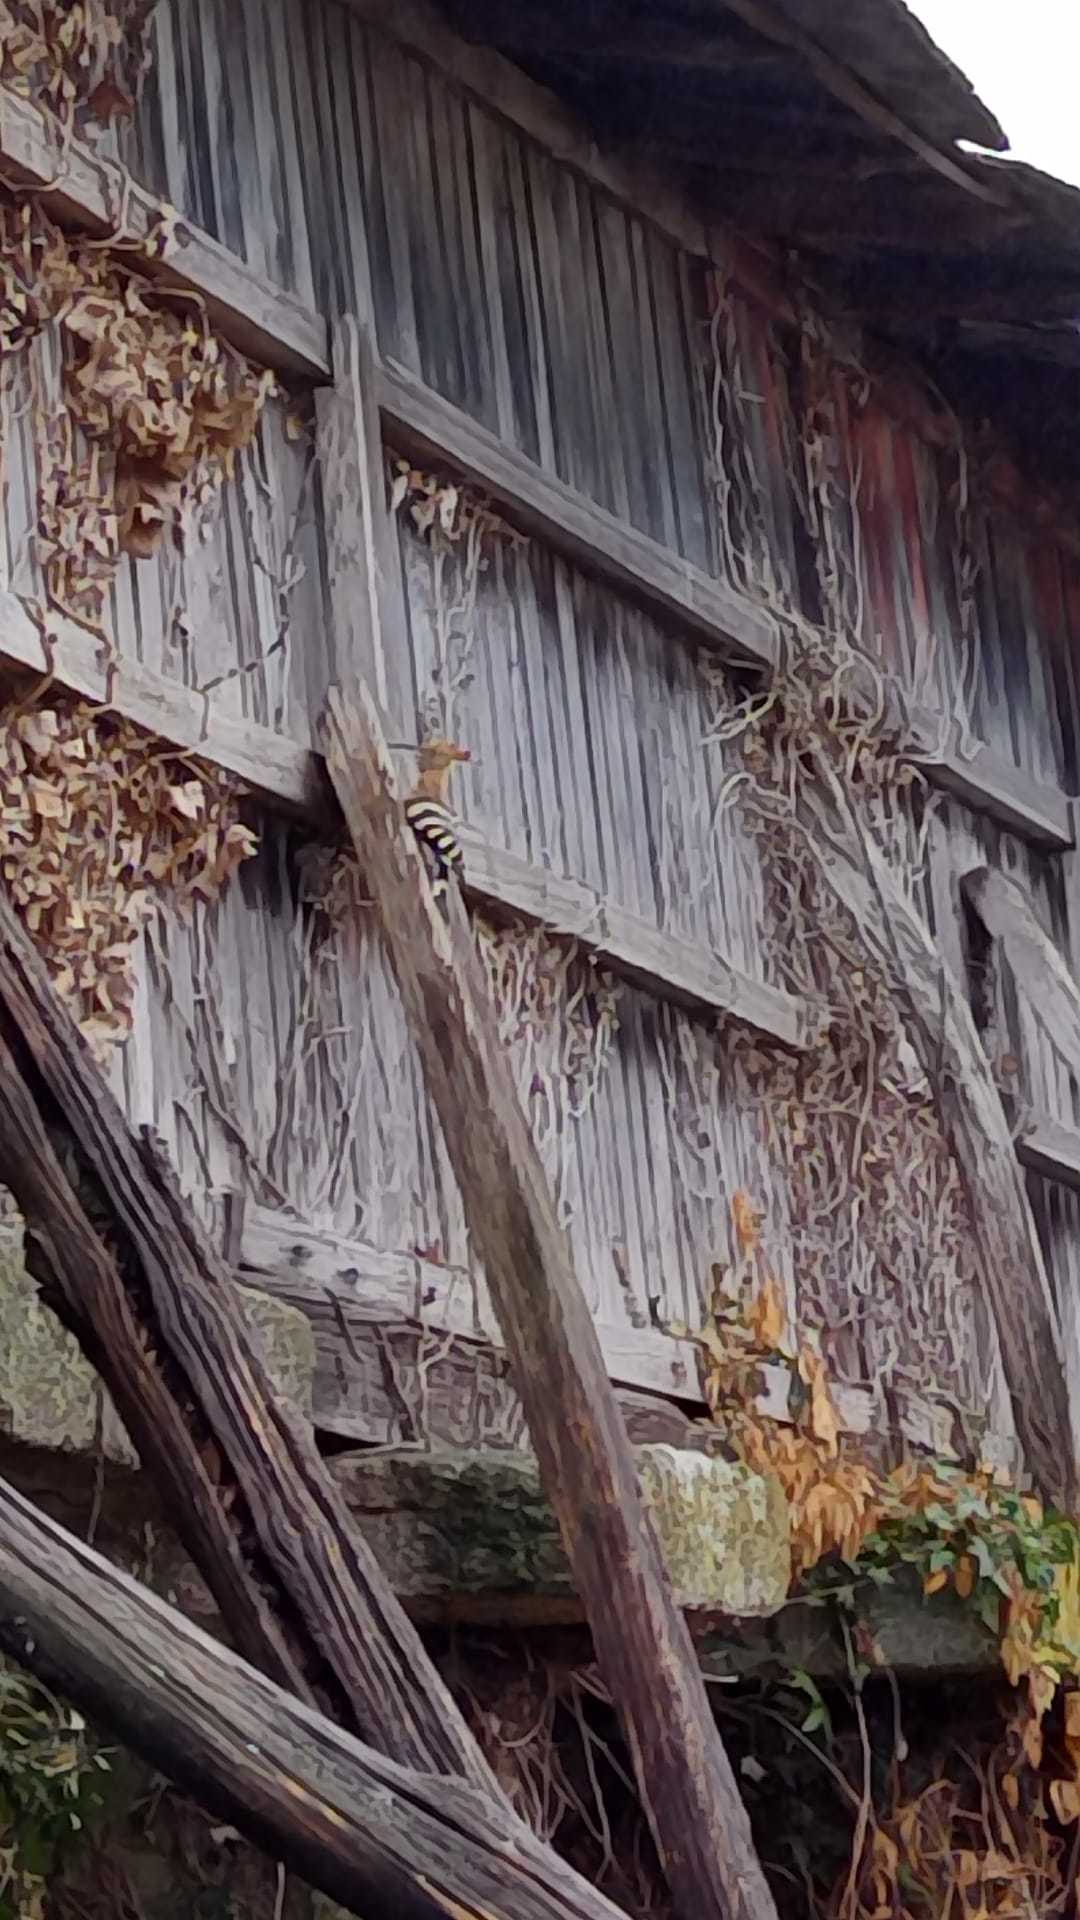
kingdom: Animalia
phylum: Chordata
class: Aves
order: Bucerotiformes
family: Upupidae
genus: Upupa
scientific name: Upupa epops
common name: Eurasian hoopoe
